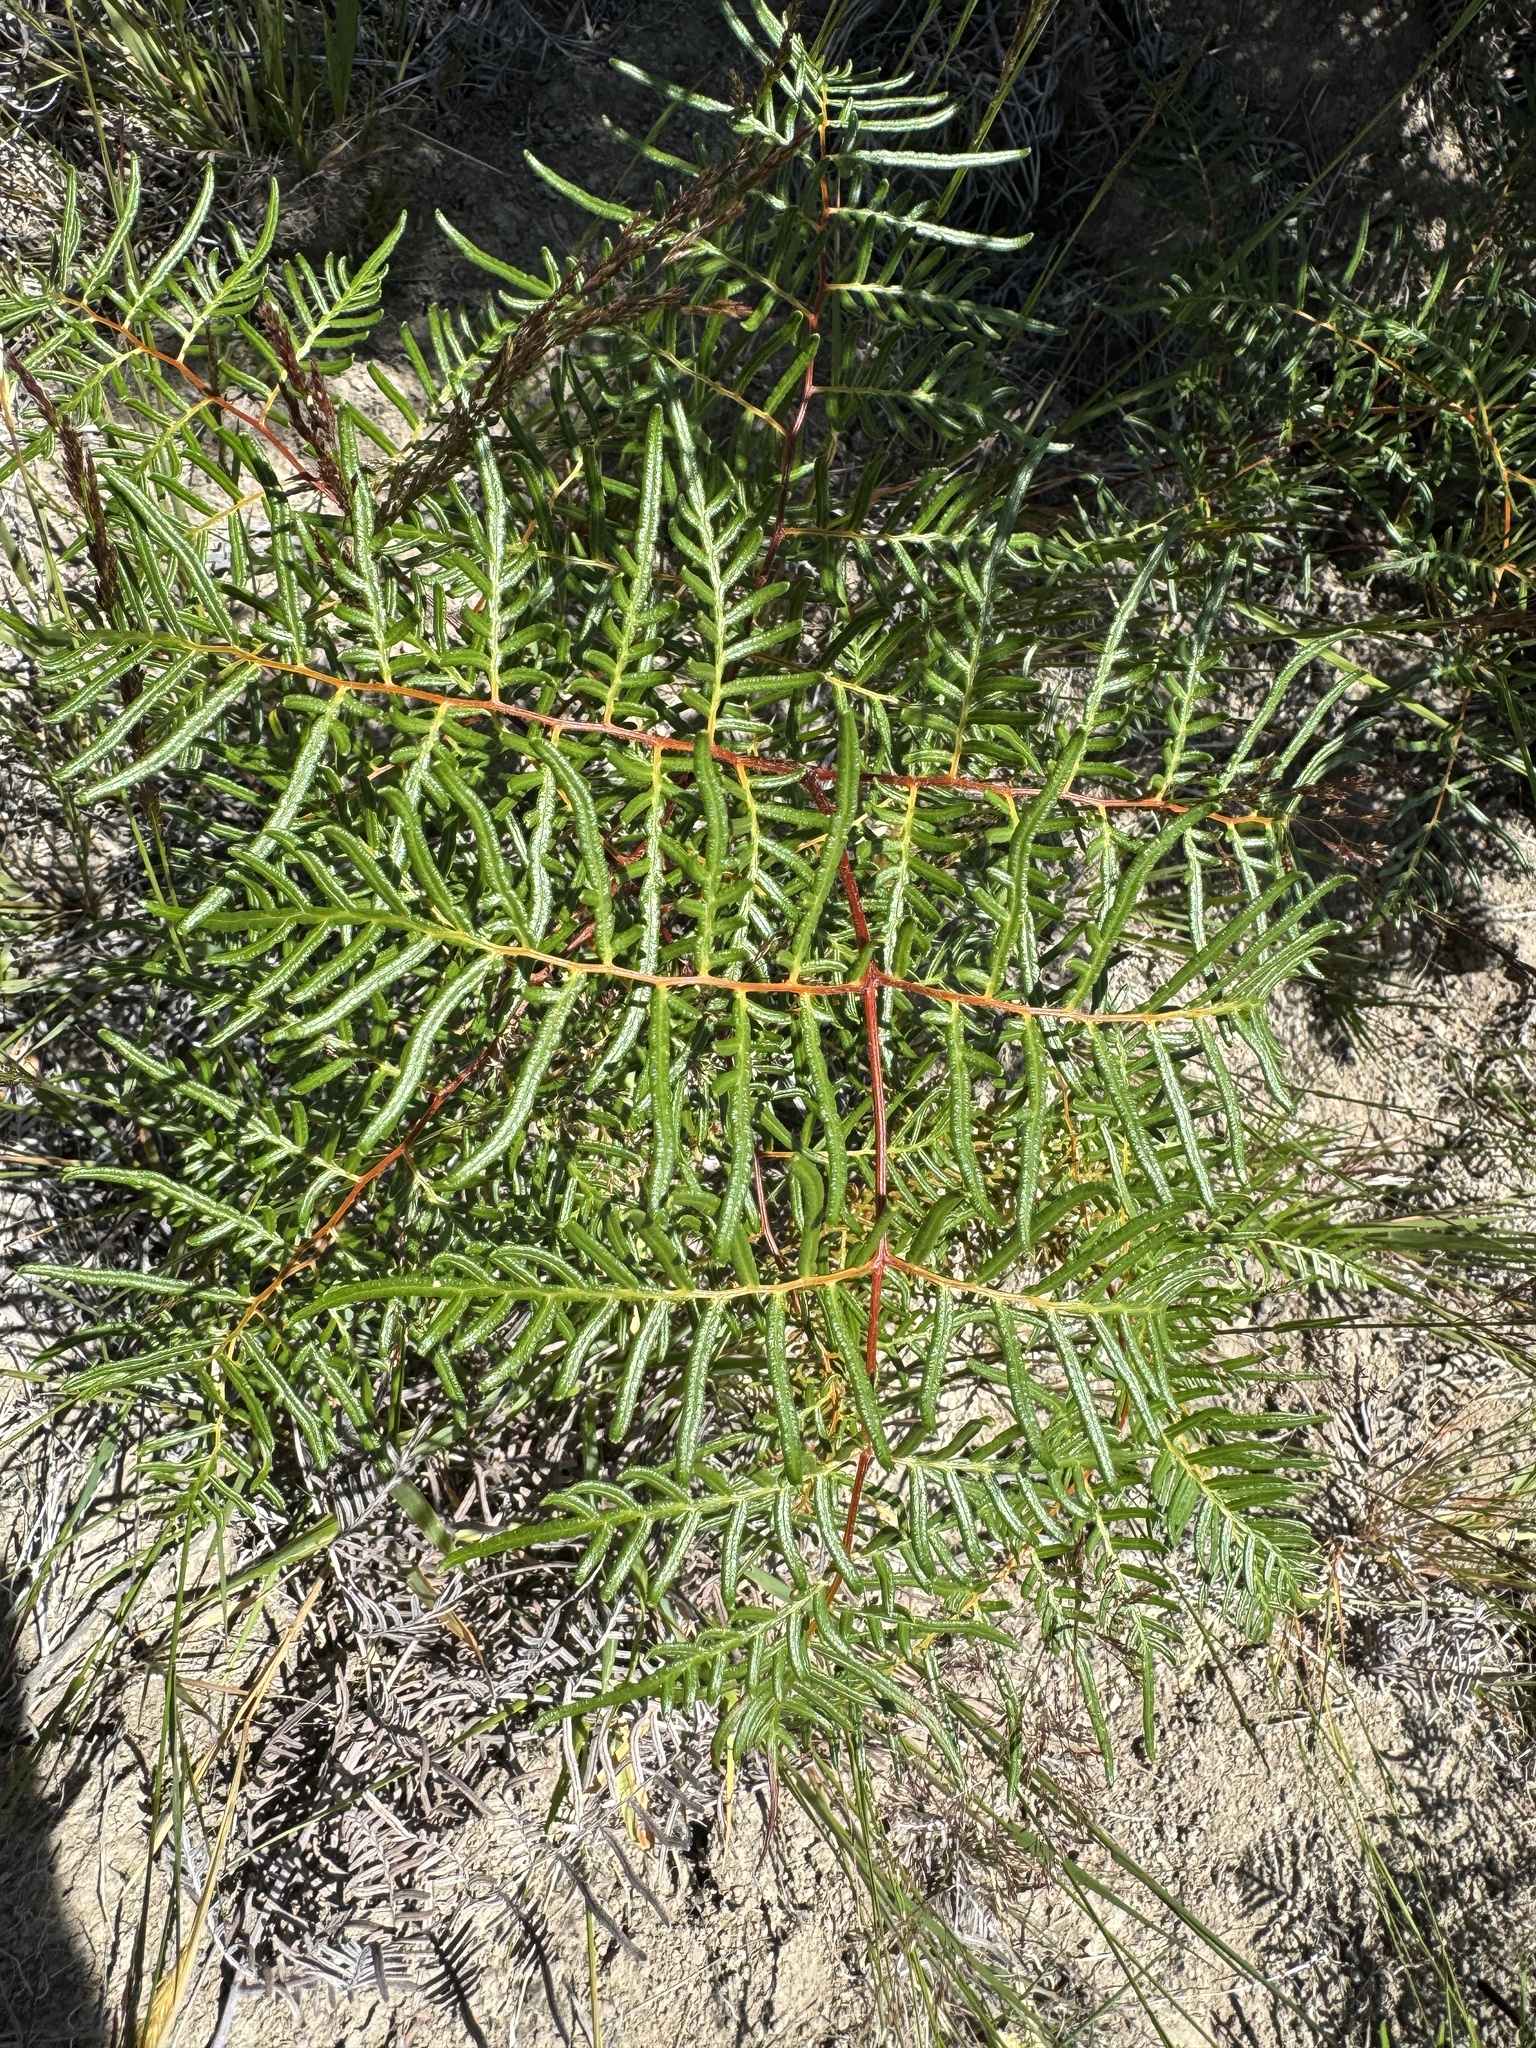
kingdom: Plantae
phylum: Tracheophyta
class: Polypodiopsida
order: Polypodiales
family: Dennstaedtiaceae
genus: Pteridium
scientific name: Pteridium esculentum
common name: Bracken fern
